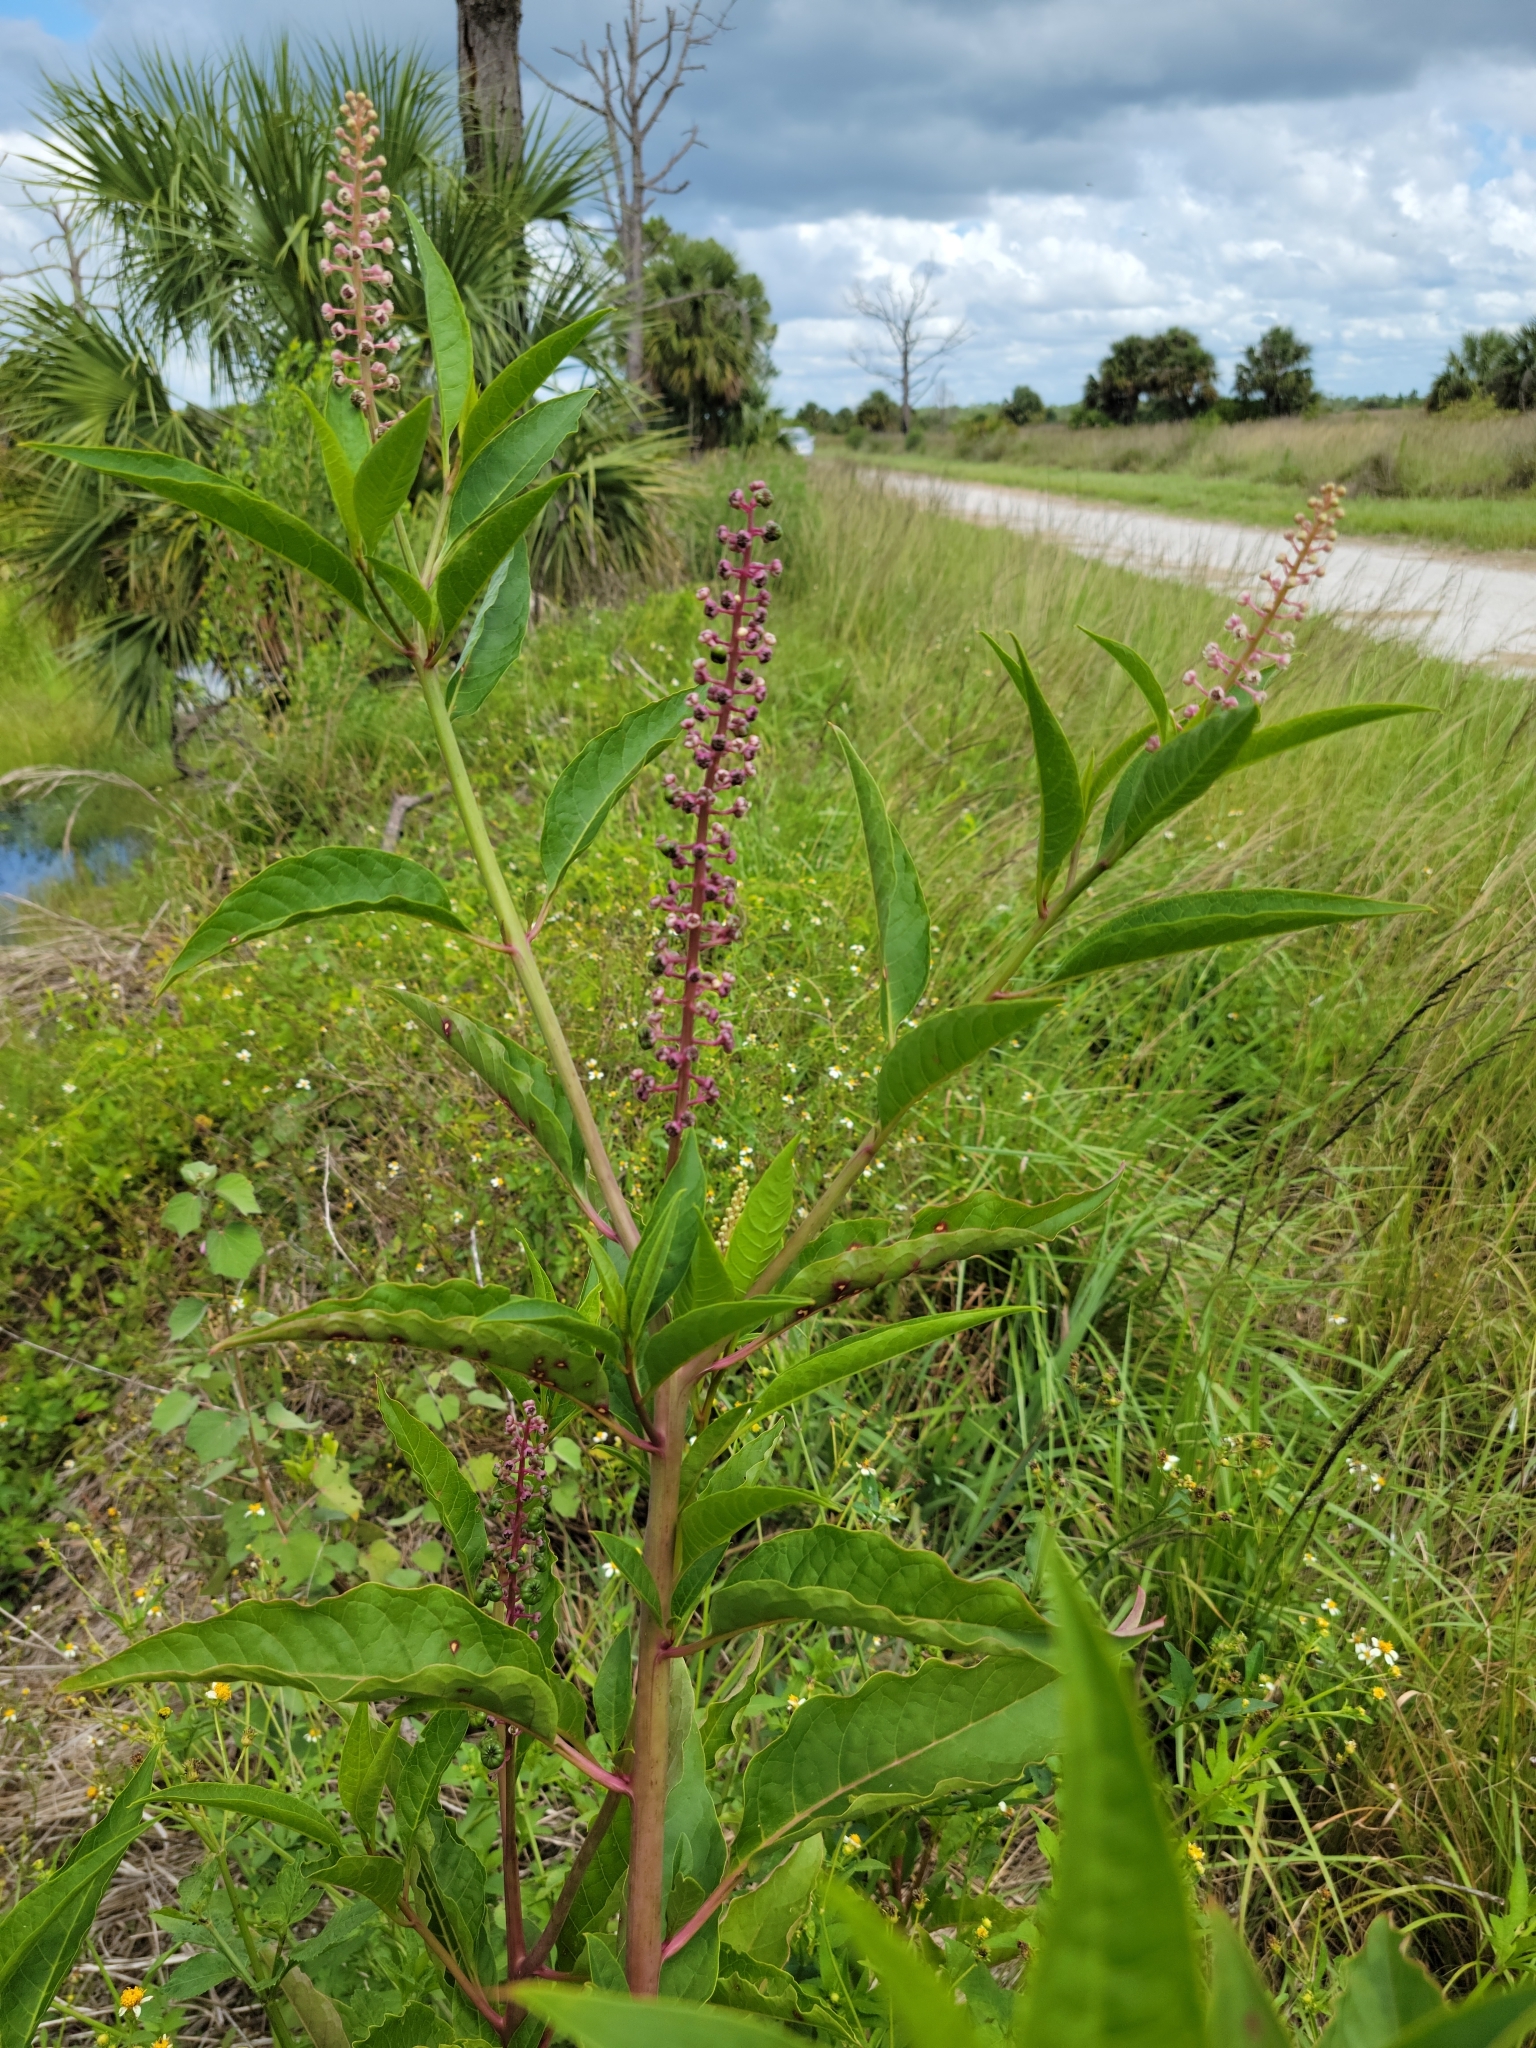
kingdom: Plantae
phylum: Tracheophyta
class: Magnoliopsida
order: Caryophyllales
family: Phytolaccaceae
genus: Phytolacca
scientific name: Phytolacca americana
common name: American pokeweed
